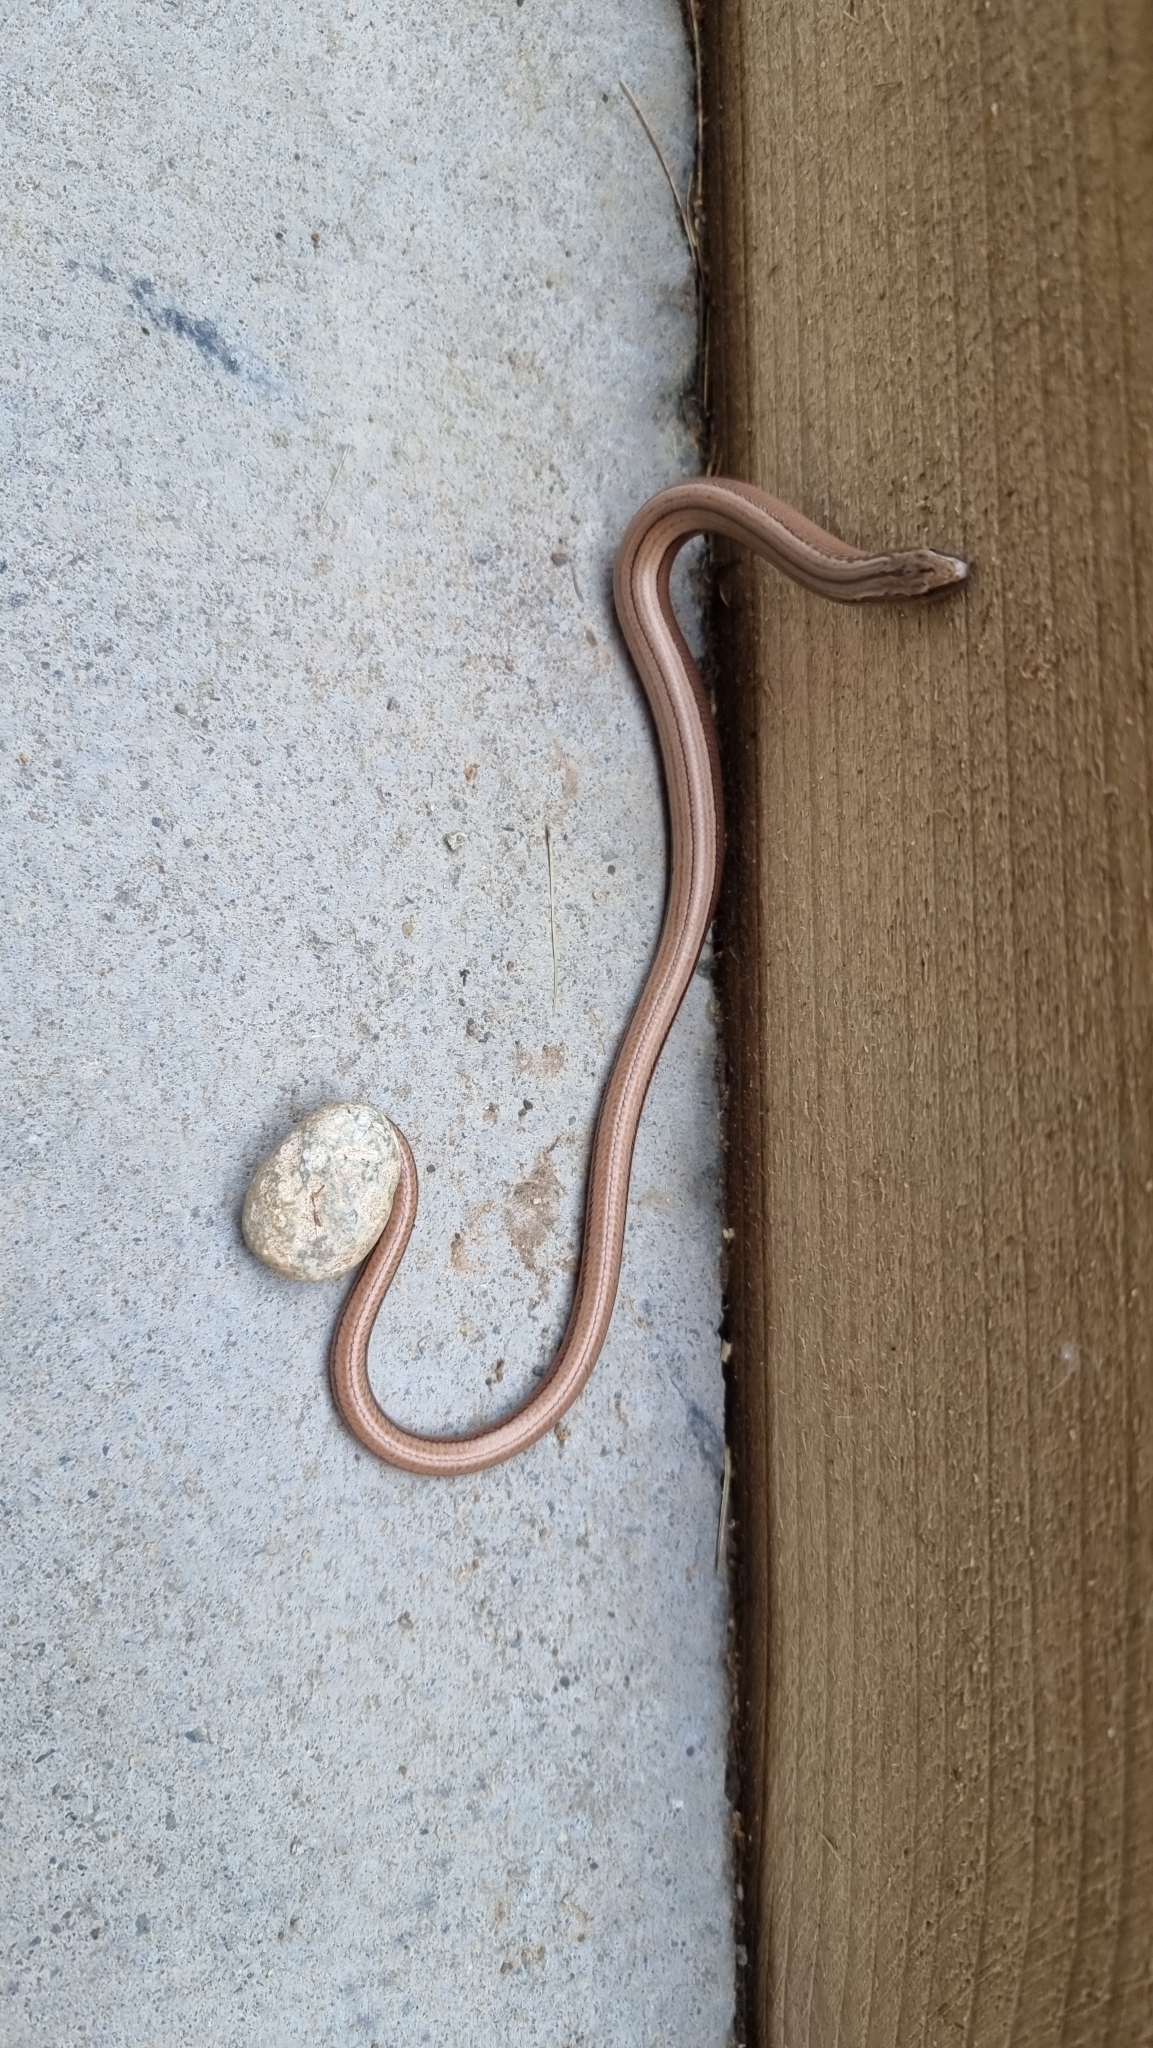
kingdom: Animalia
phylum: Chordata
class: Squamata
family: Anguidae
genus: Anguis
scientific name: Anguis fragilis
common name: Slow worm
